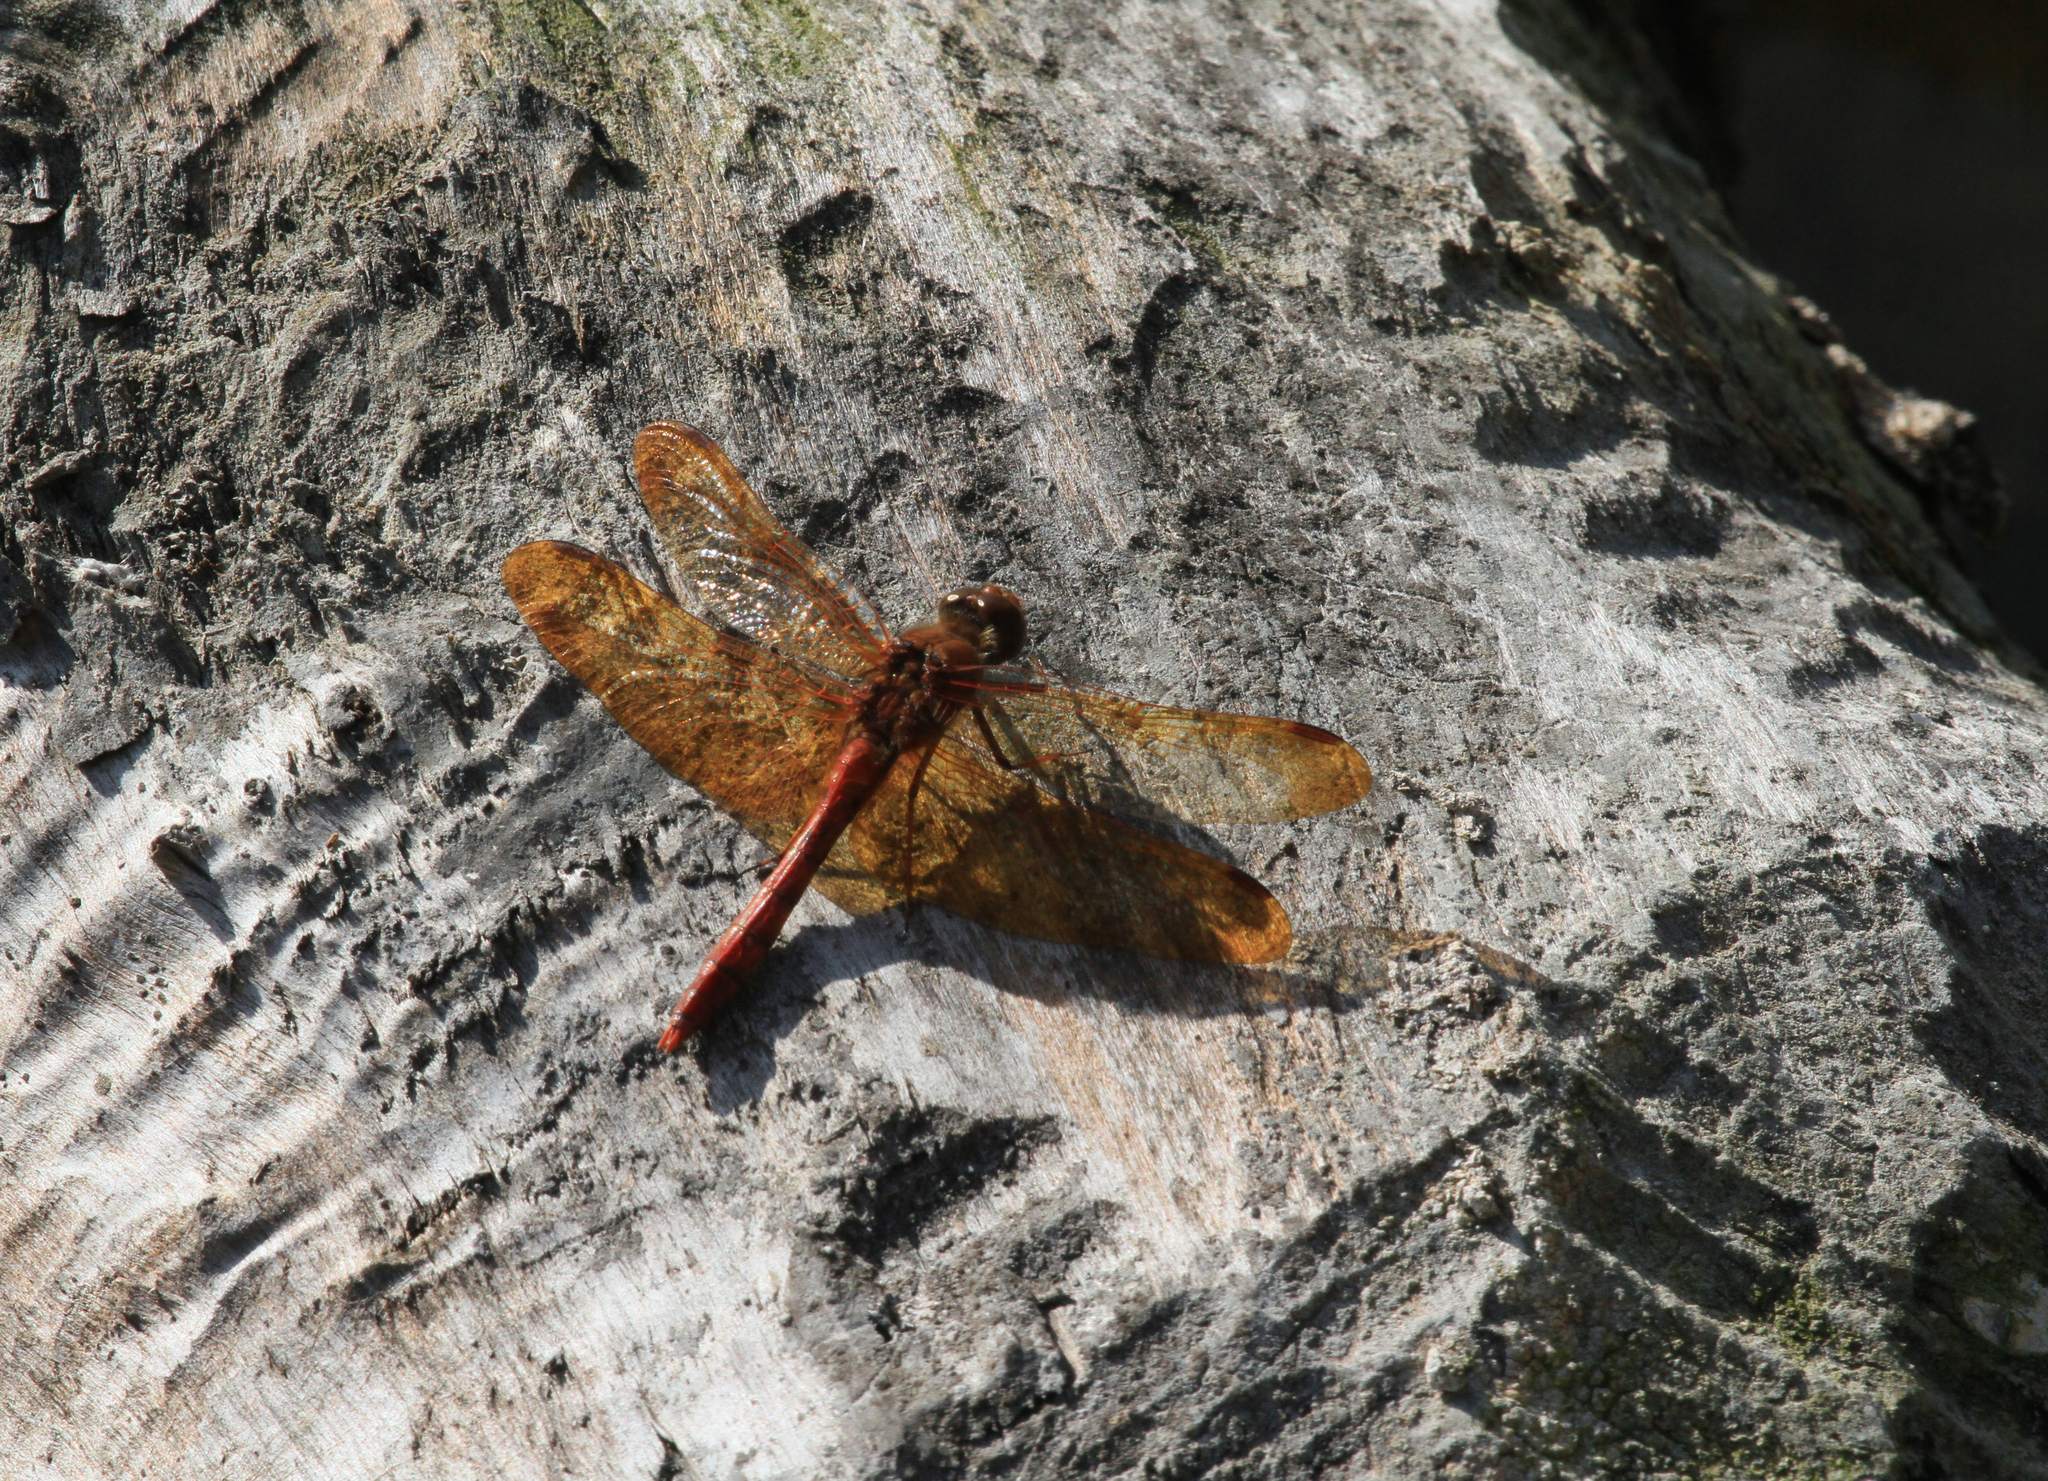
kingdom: Animalia
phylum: Chordata
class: Mammalia
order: Rodentia
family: Castoridae
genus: Castor
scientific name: Castor fiber
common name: Eurasian beaver
